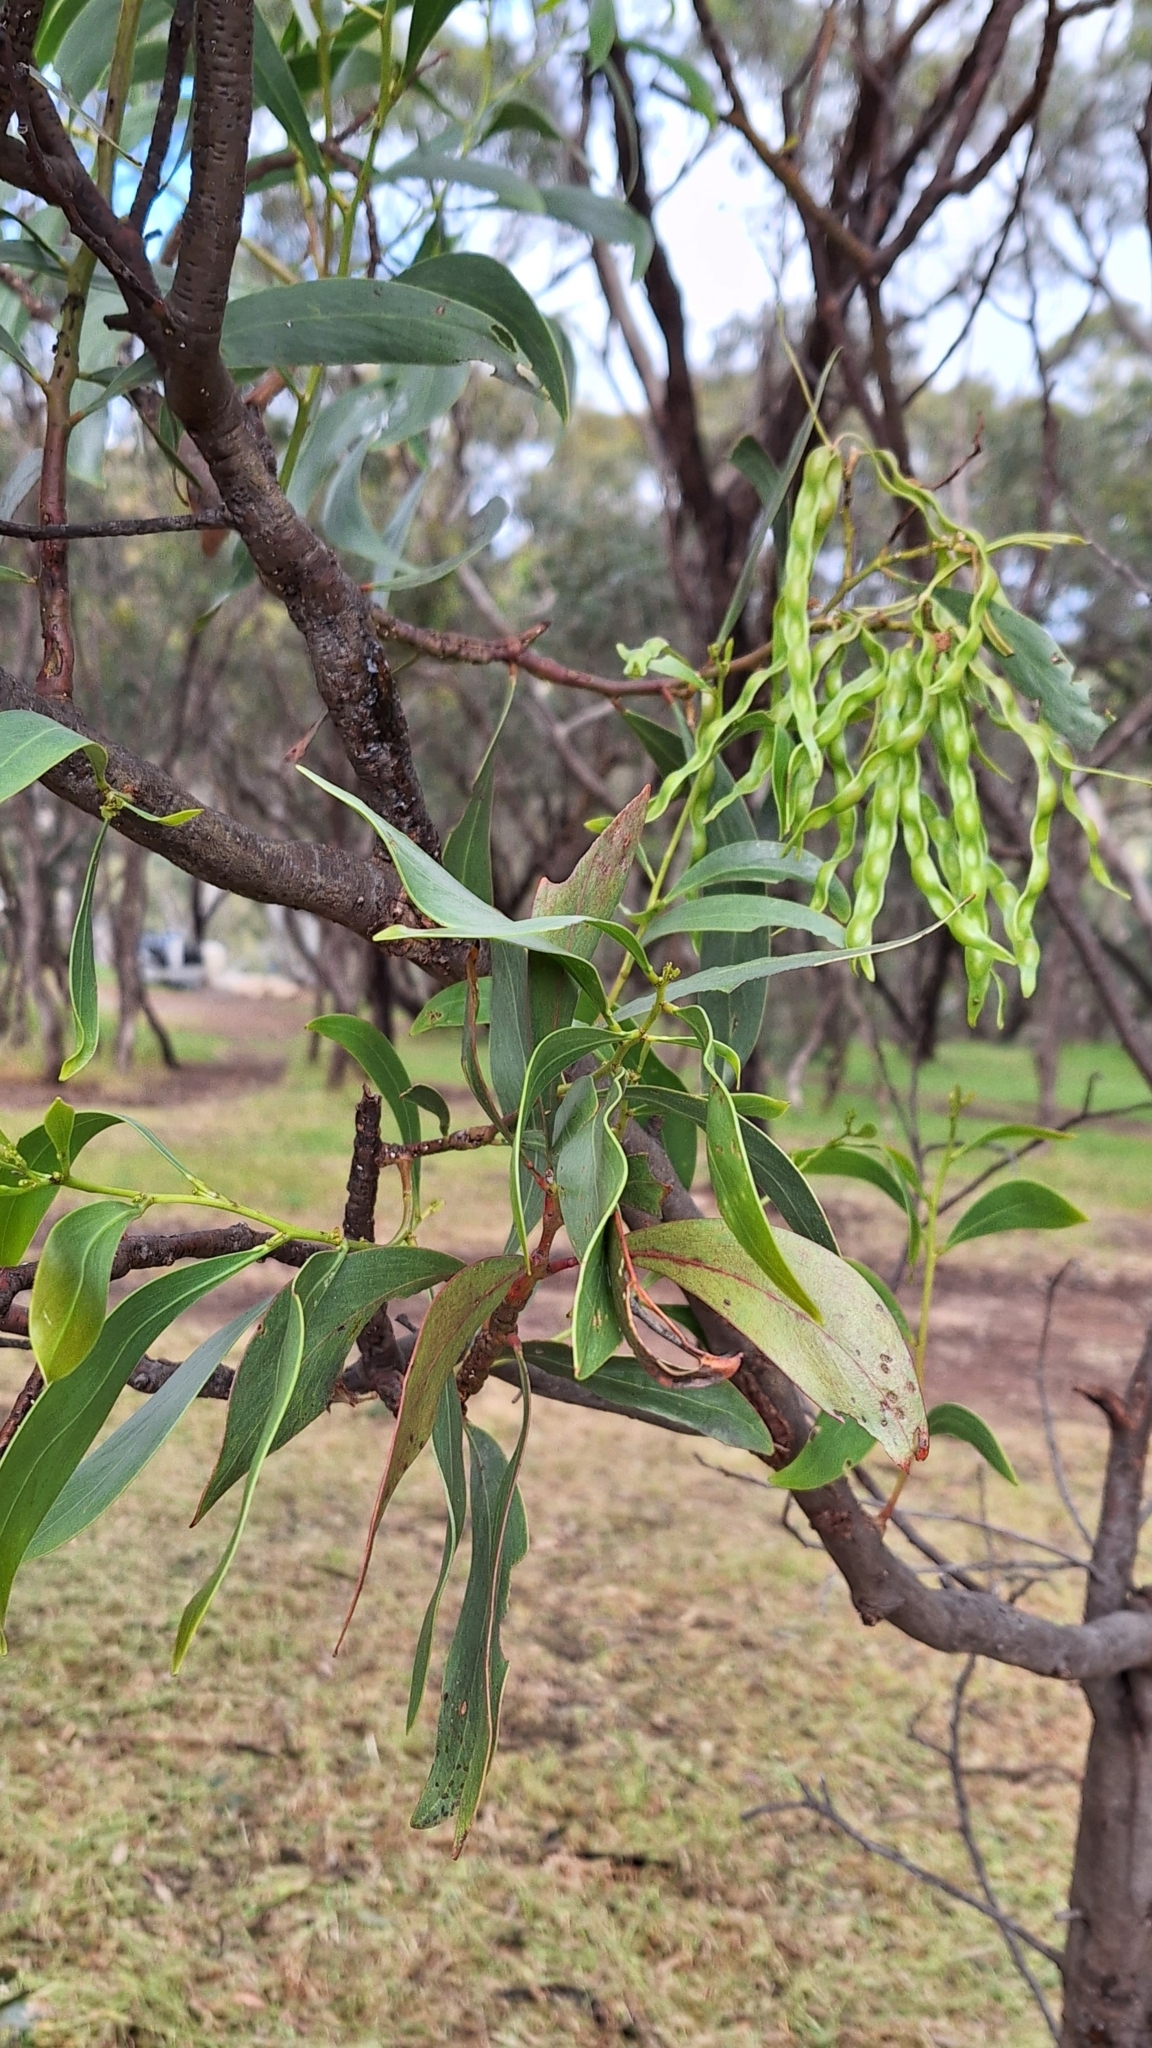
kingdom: Plantae
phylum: Tracheophyta
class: Magnoliopsida
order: Fabales
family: Fabaceae
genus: Acacia
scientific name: Acacia pycnantha
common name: Golden wattle
